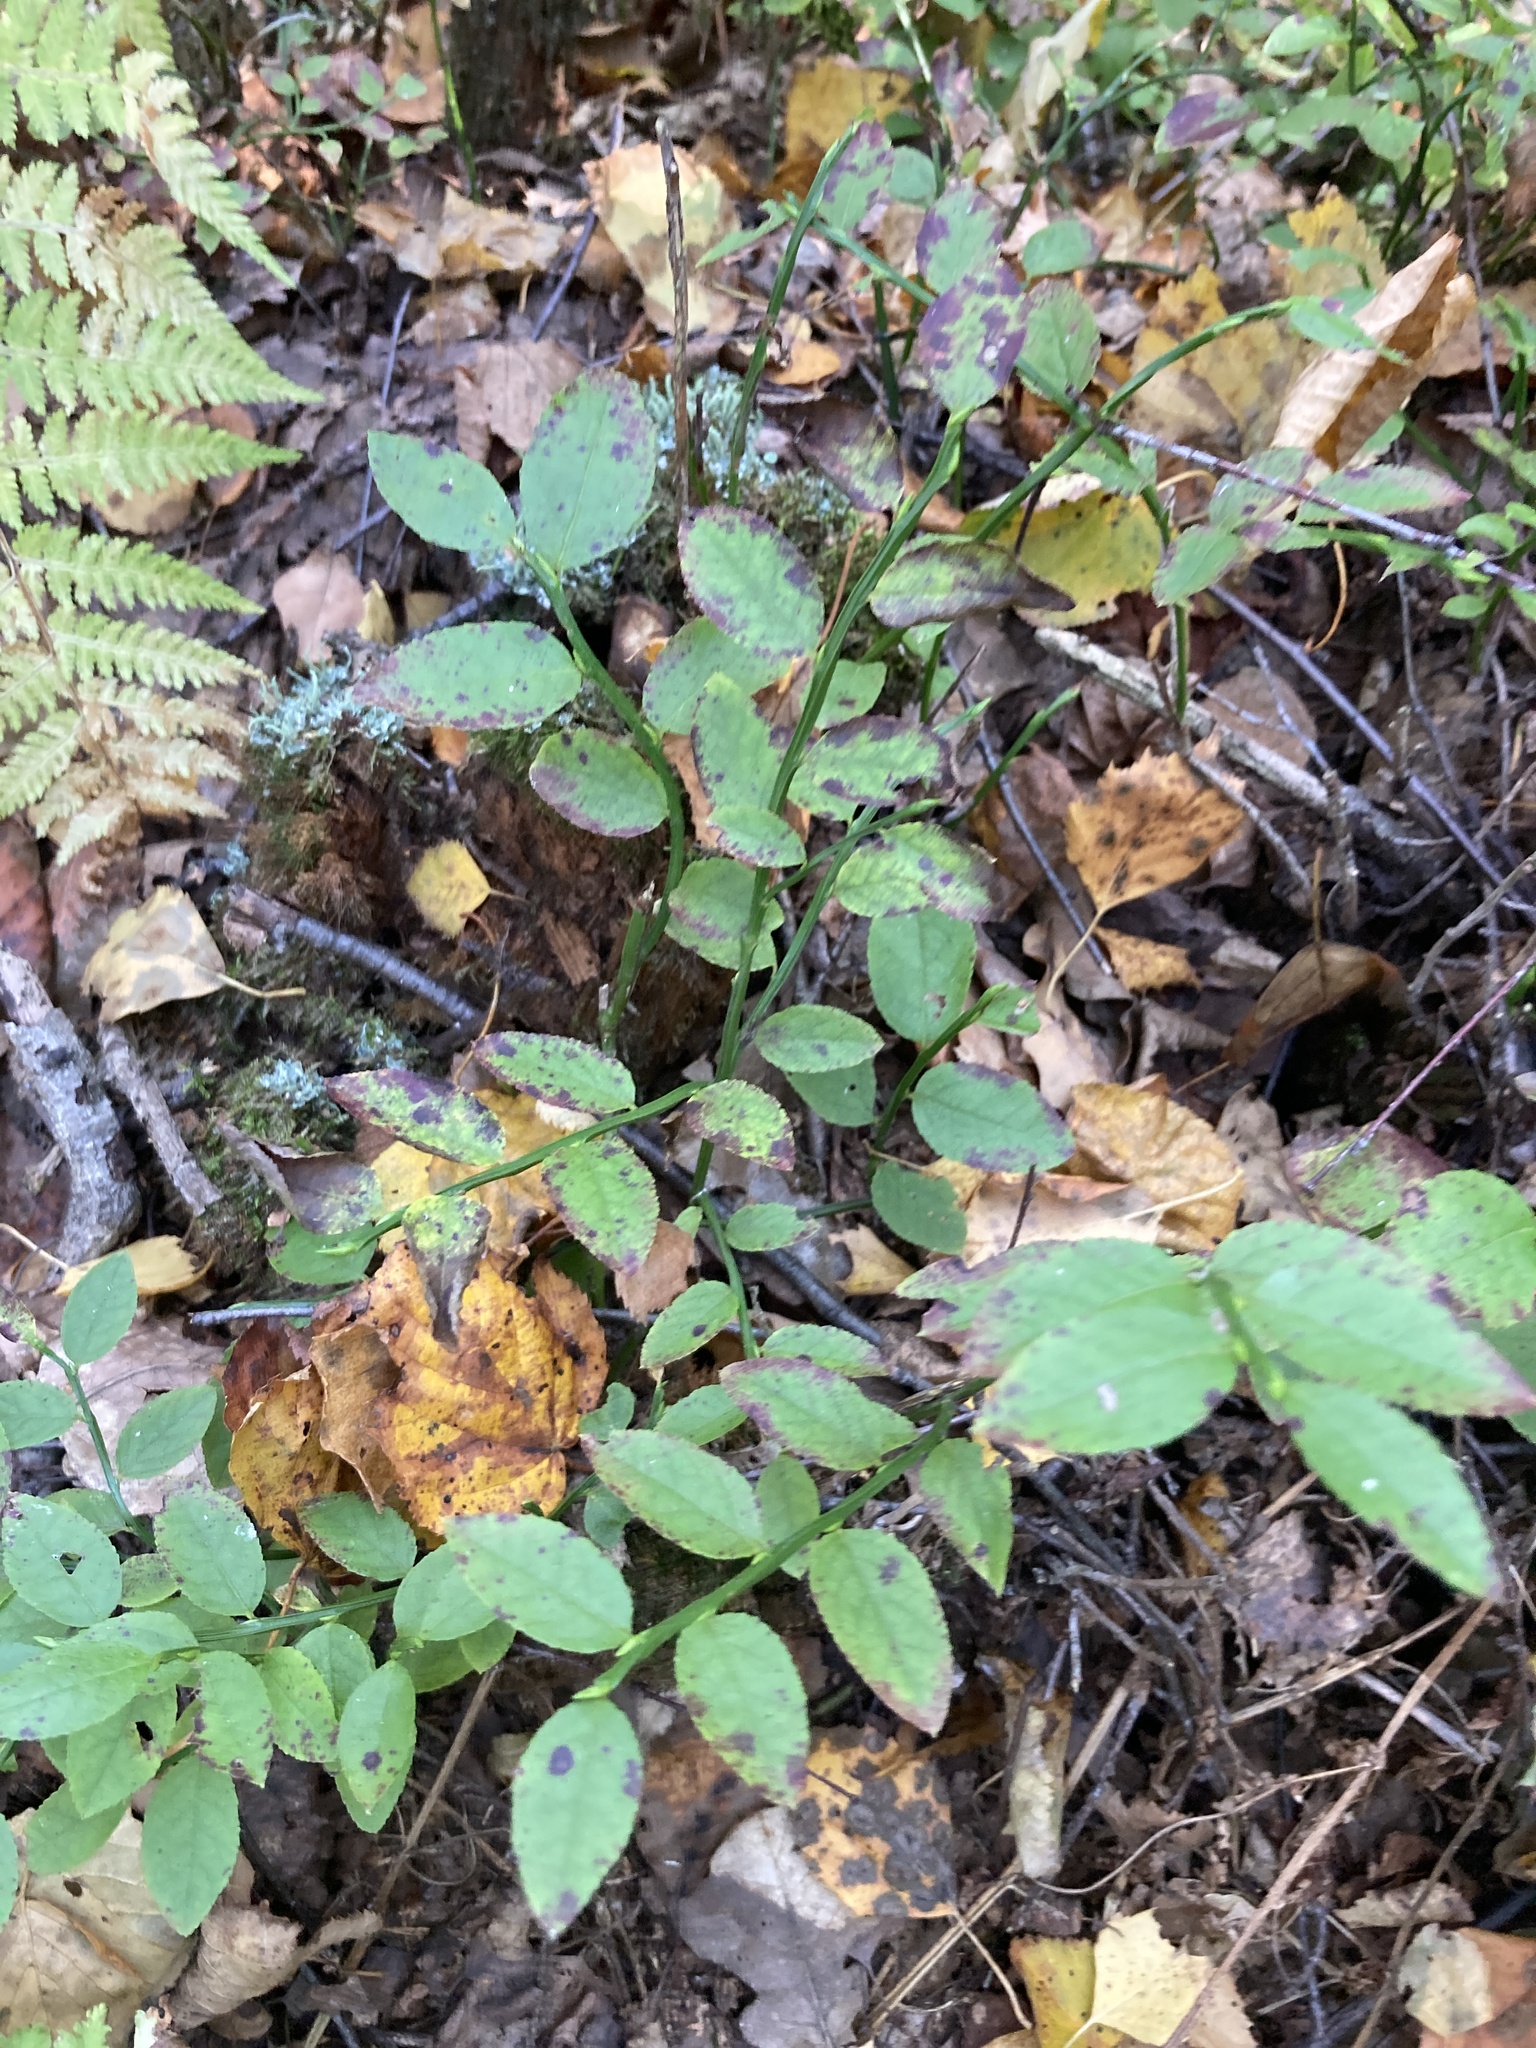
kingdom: Plantae
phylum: Tracheophyta
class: Magnoliopsida
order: Ericales
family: Ericaceae
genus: Vaccinium
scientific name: Vaccinium myrtillus
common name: Bilberry
